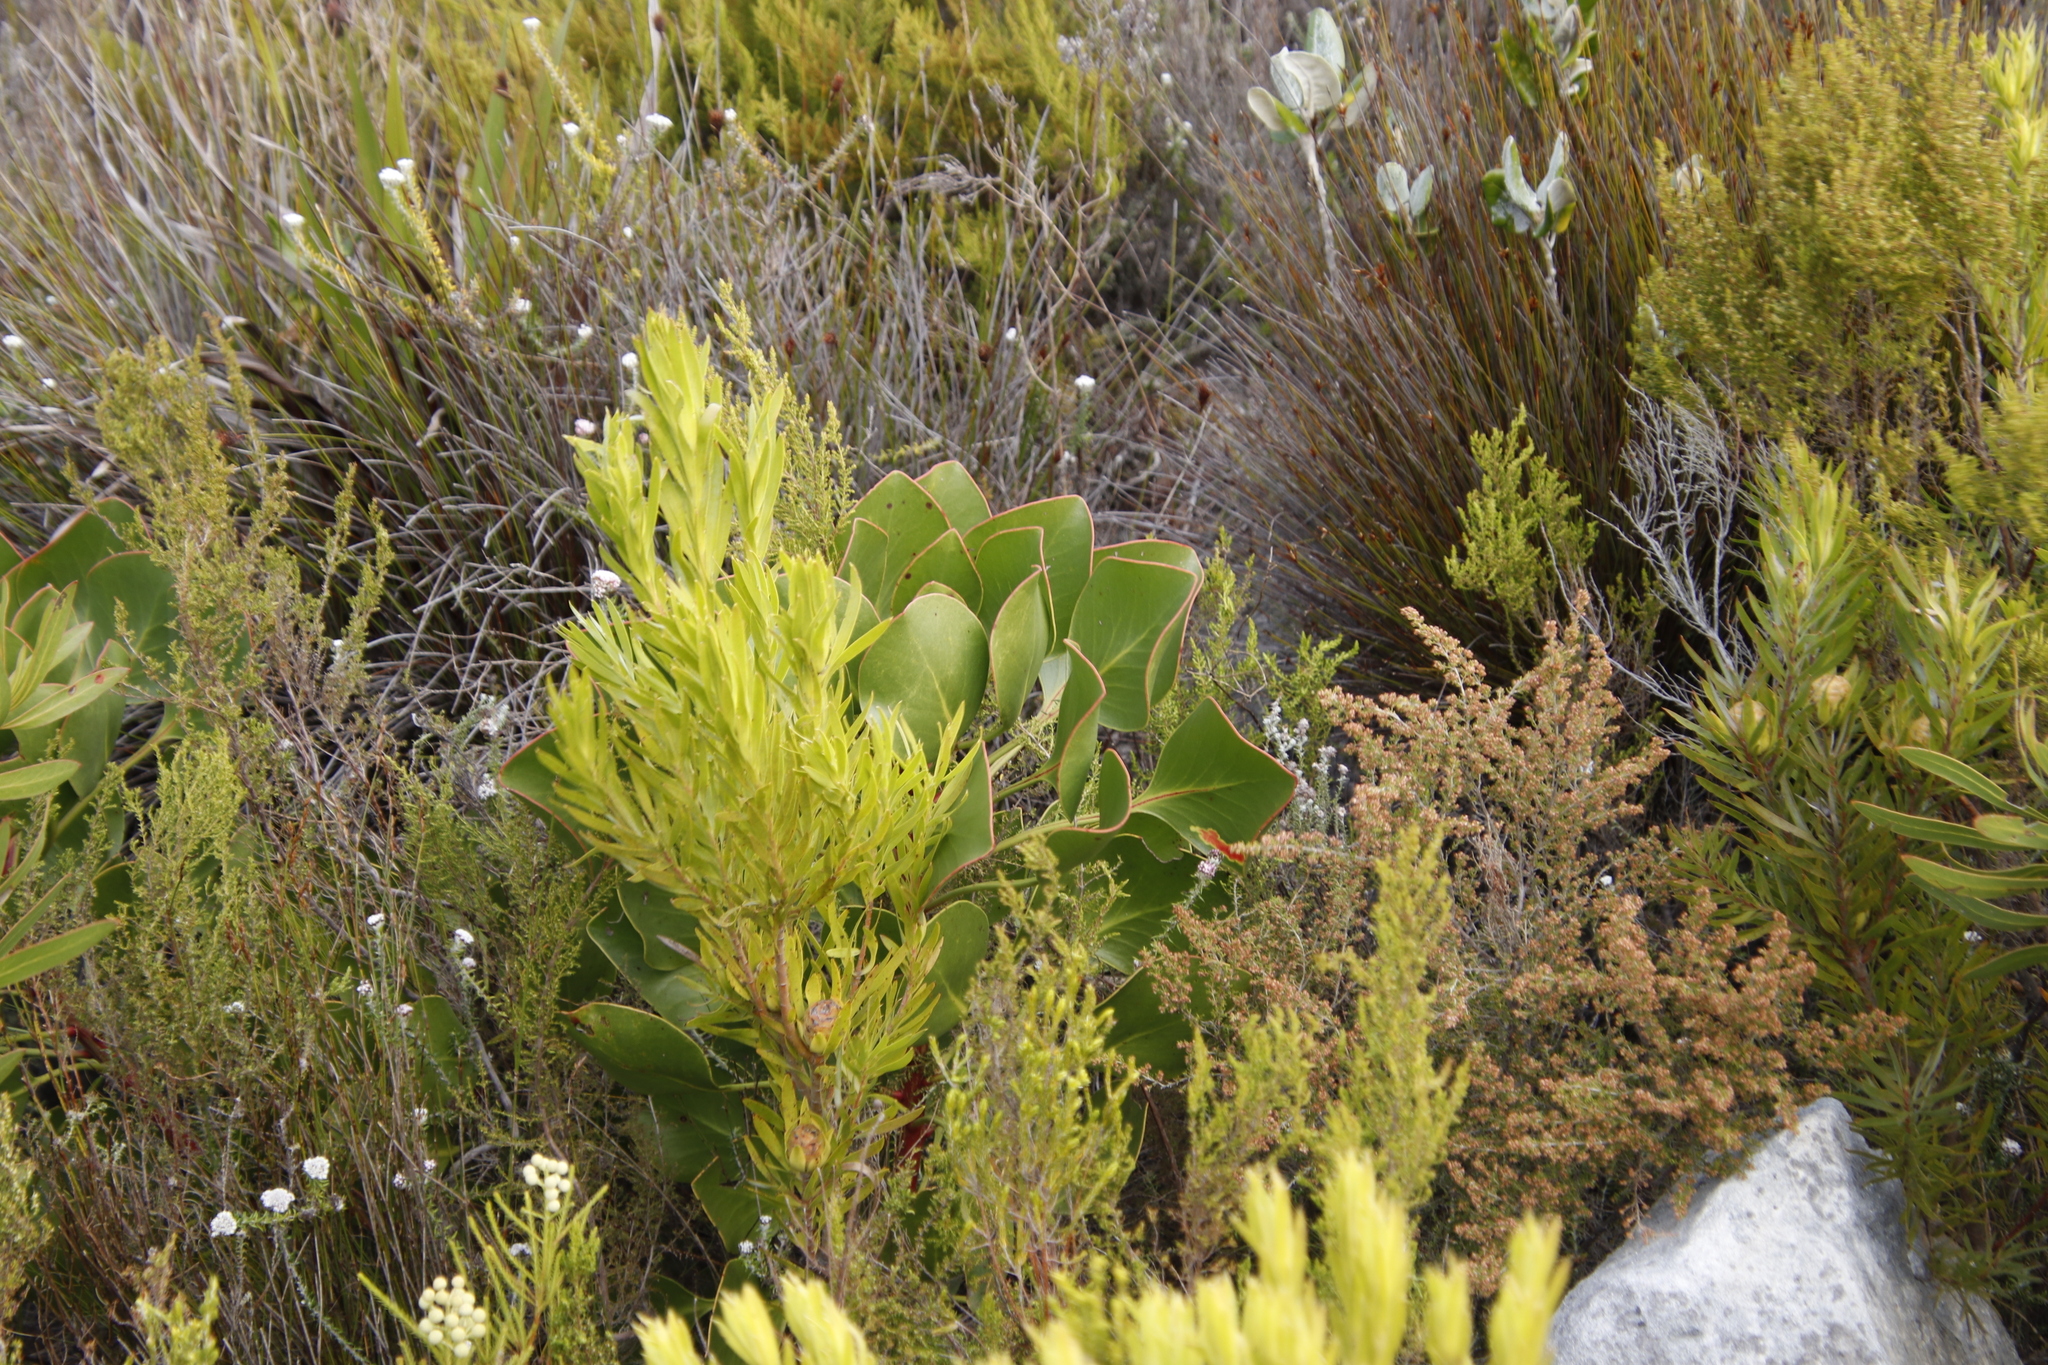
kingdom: Plantae
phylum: Tracheophyta
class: Magnoliopsida
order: Proteales
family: Proteaceae
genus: Protea
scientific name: Protea cynaroides
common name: King protea
